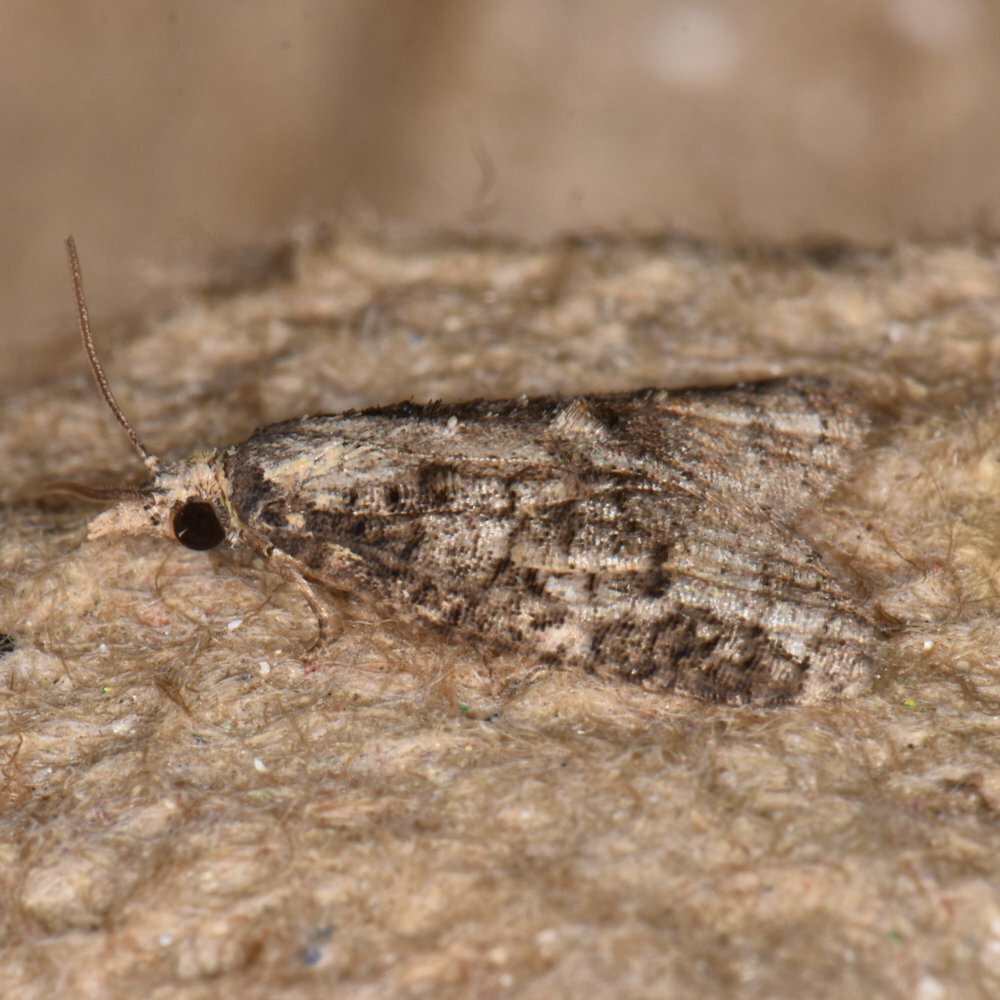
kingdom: Animalia
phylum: Arthropoda
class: Insecta
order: Lepidoptera
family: Tortricidae
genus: Platynota
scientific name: Platynota exasperatana
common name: Exasperating platynota moth
